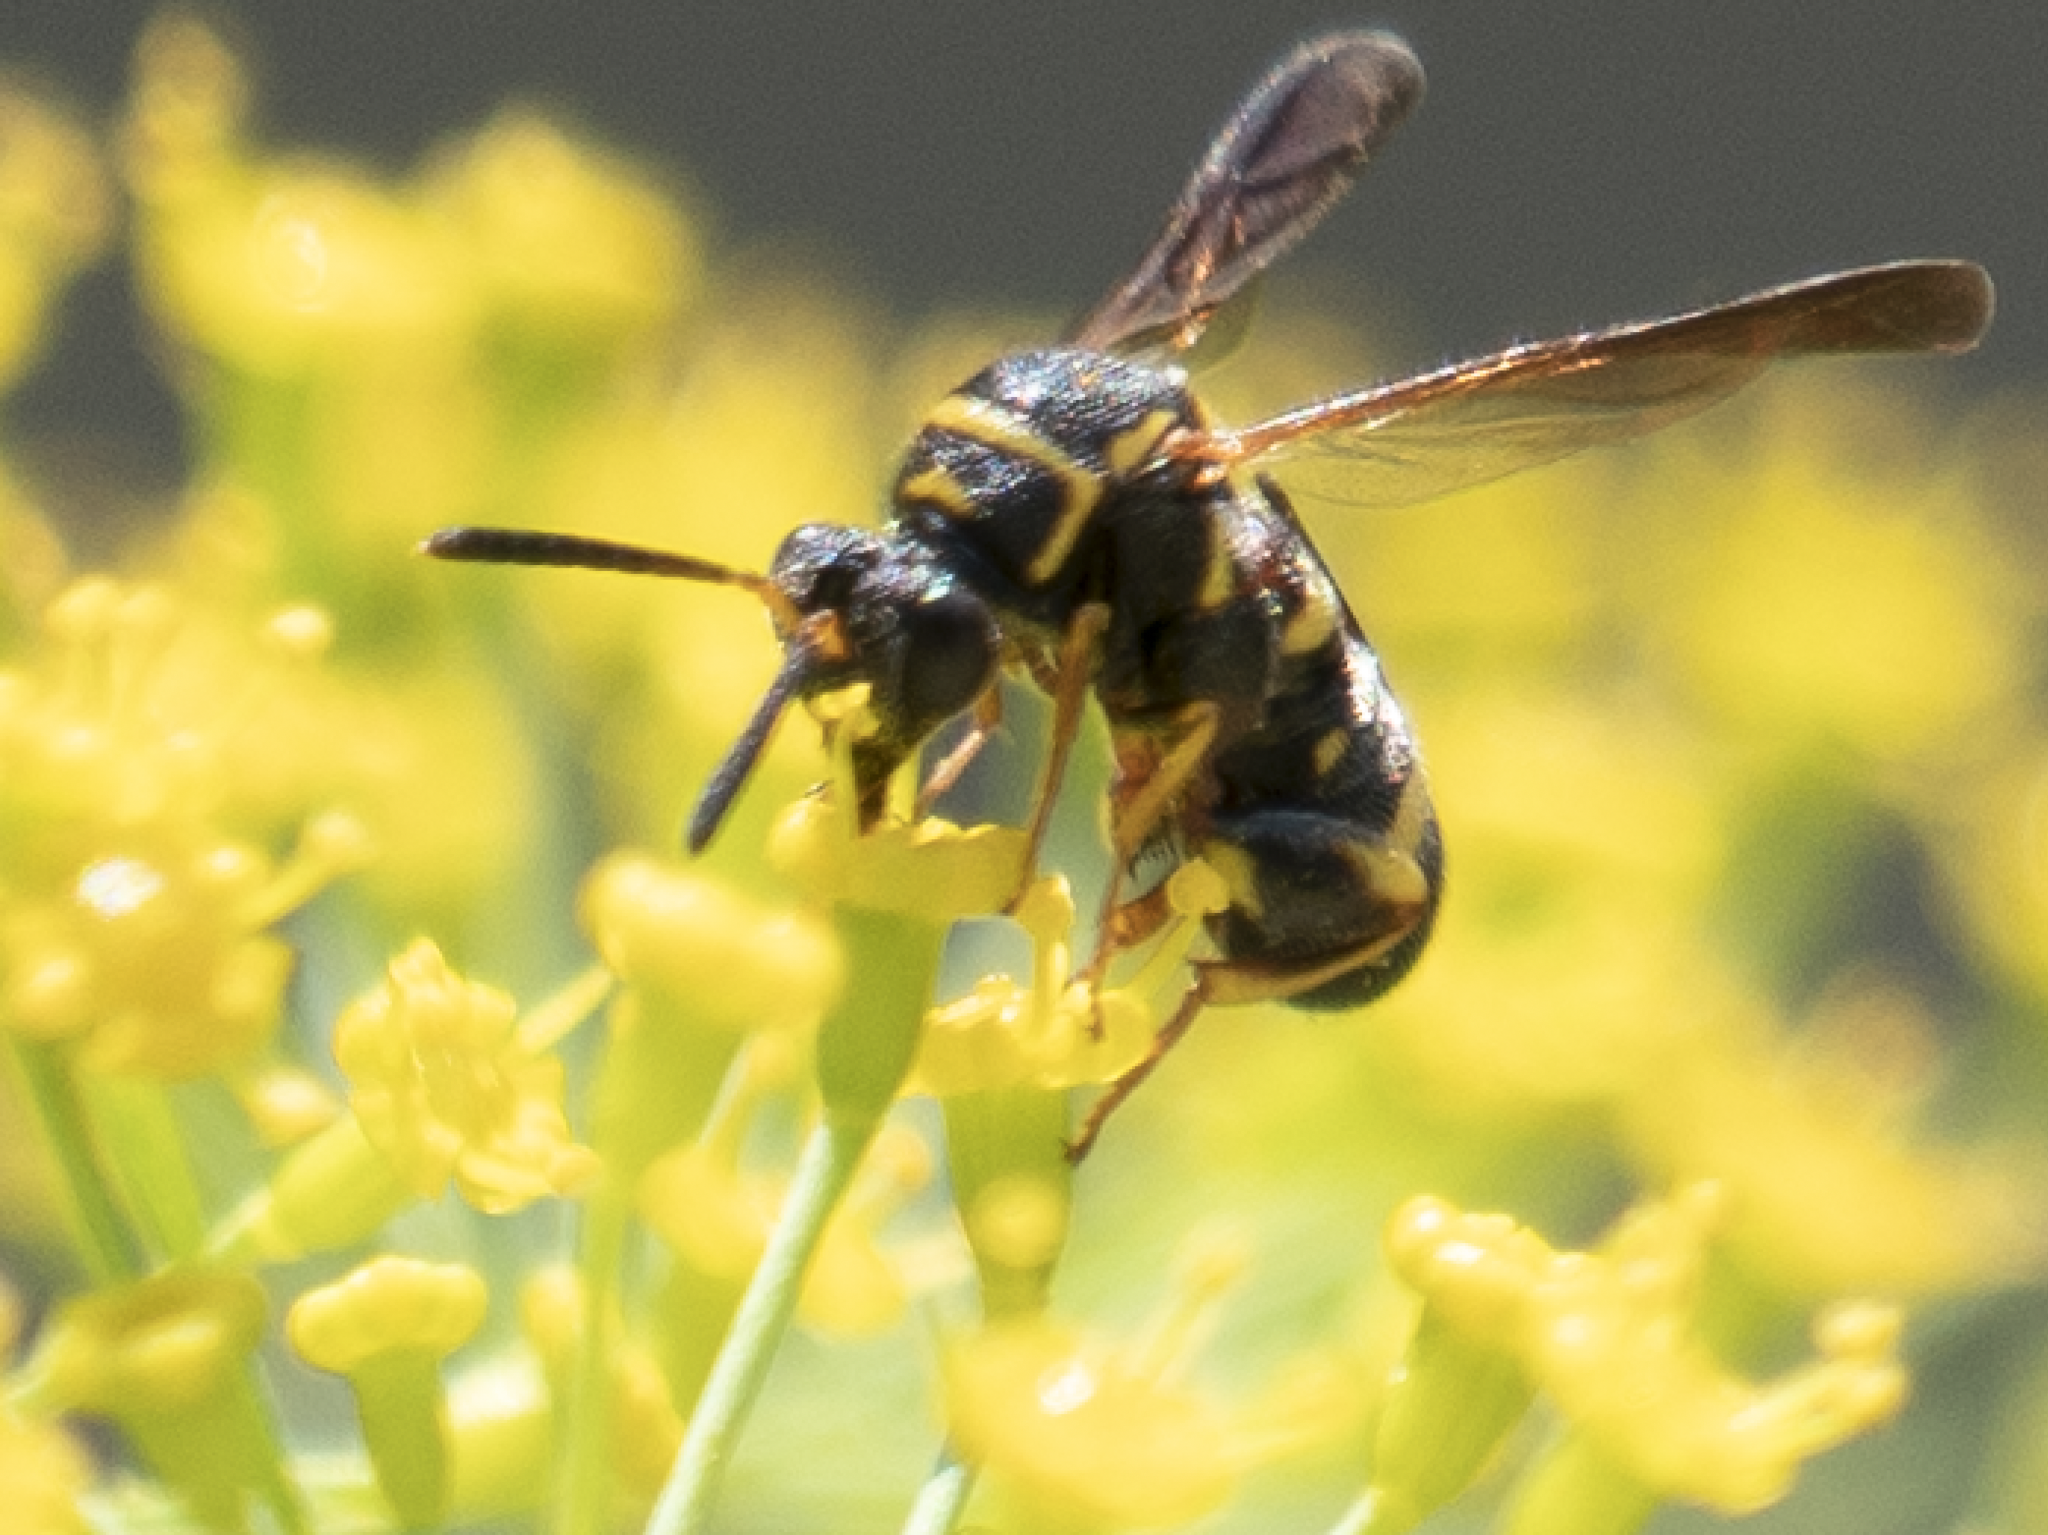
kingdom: Animalia
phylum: Arthropoda
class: Insecta
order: Hymenoptera
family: Leucospidae
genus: Leucospis
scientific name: Leucospis affinis
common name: Wasp
